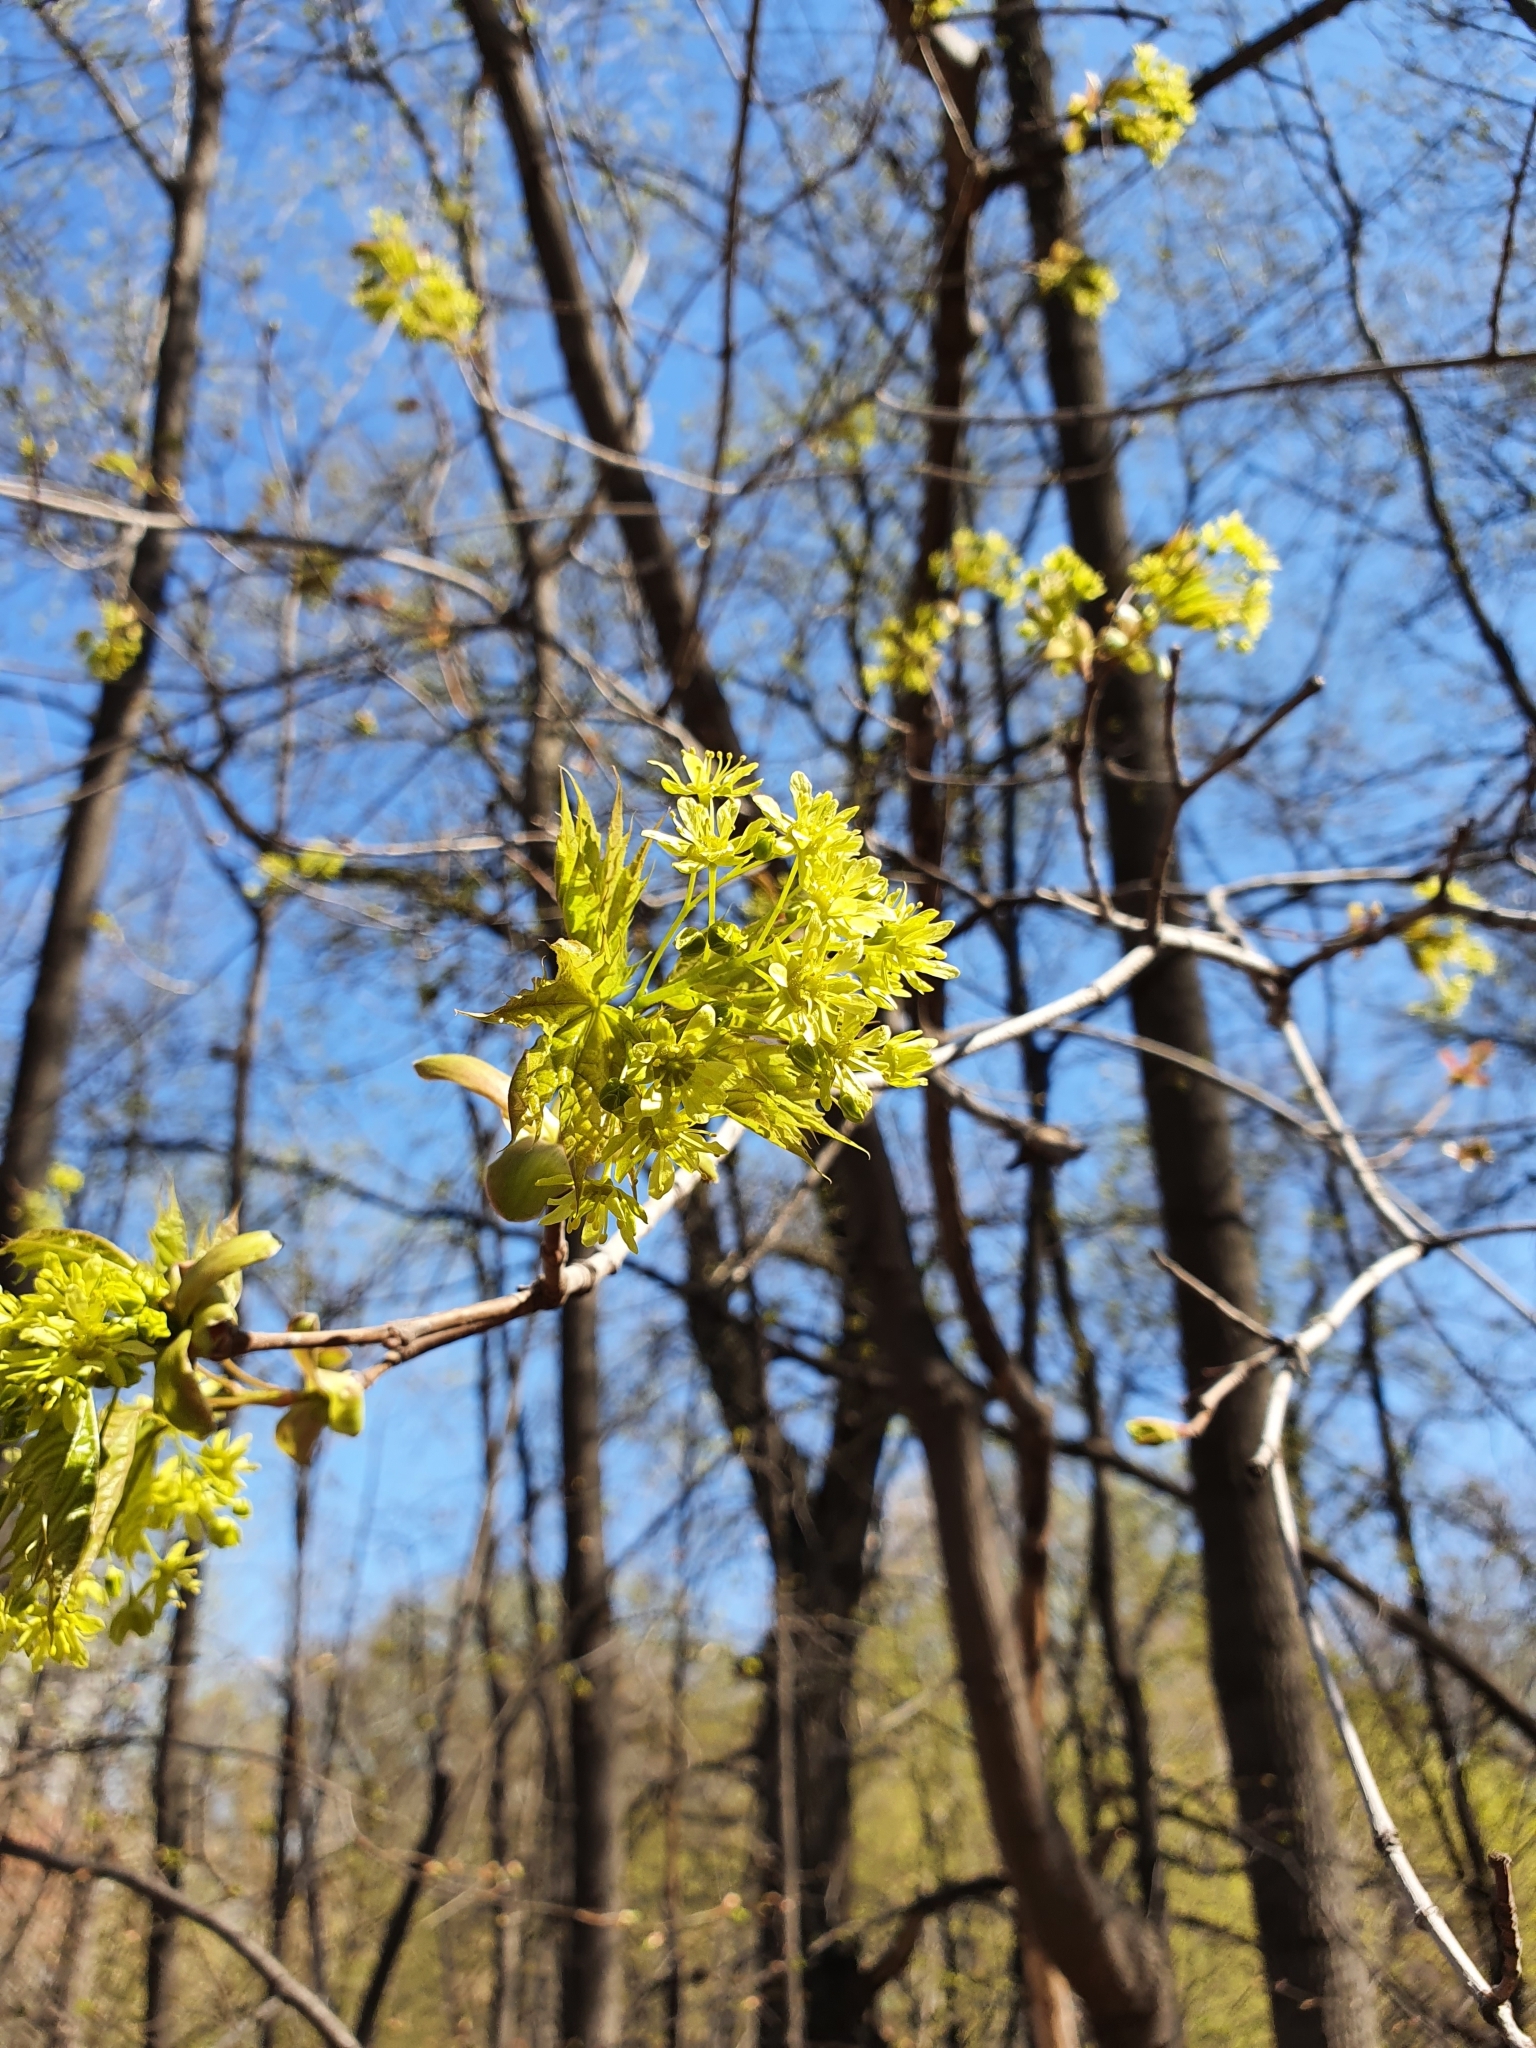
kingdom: Plantae
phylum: Tracheophyta
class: Magnoliopsida
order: Sapindales
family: Sapindaceae
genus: Acer
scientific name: Acer platanoides
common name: Norway maple
